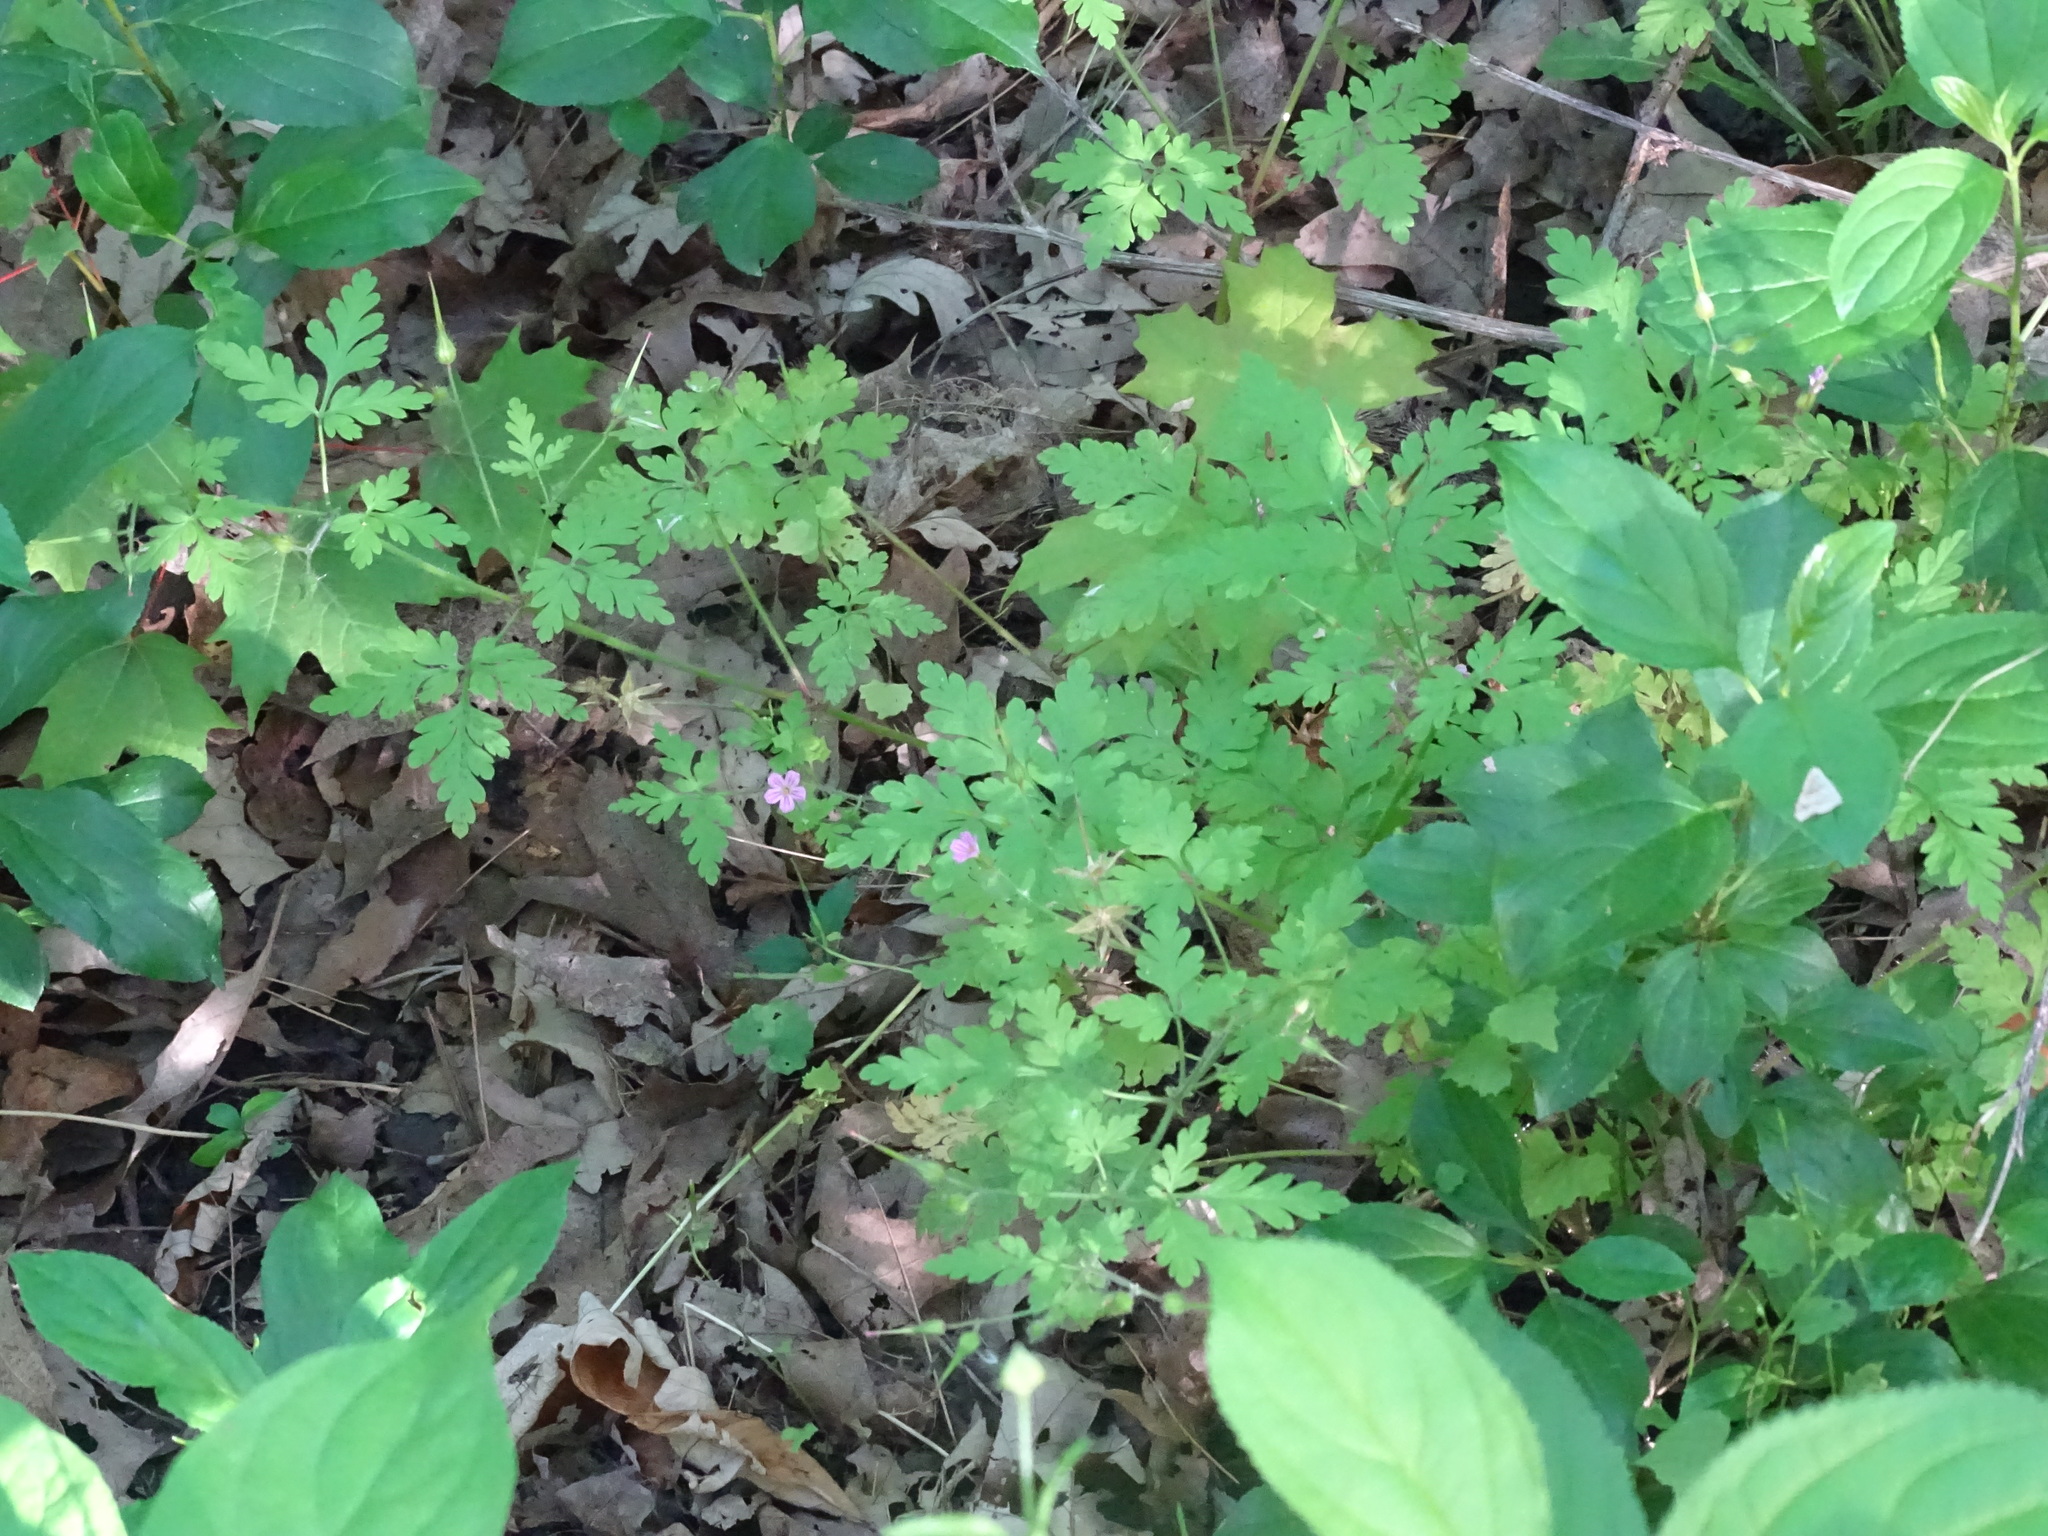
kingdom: Plantae
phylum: Tracheophyta
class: Magnoliopsida
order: Geraniales
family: Geraniaceae
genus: Geranium
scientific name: Geranium robertianum
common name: Herb-robert
